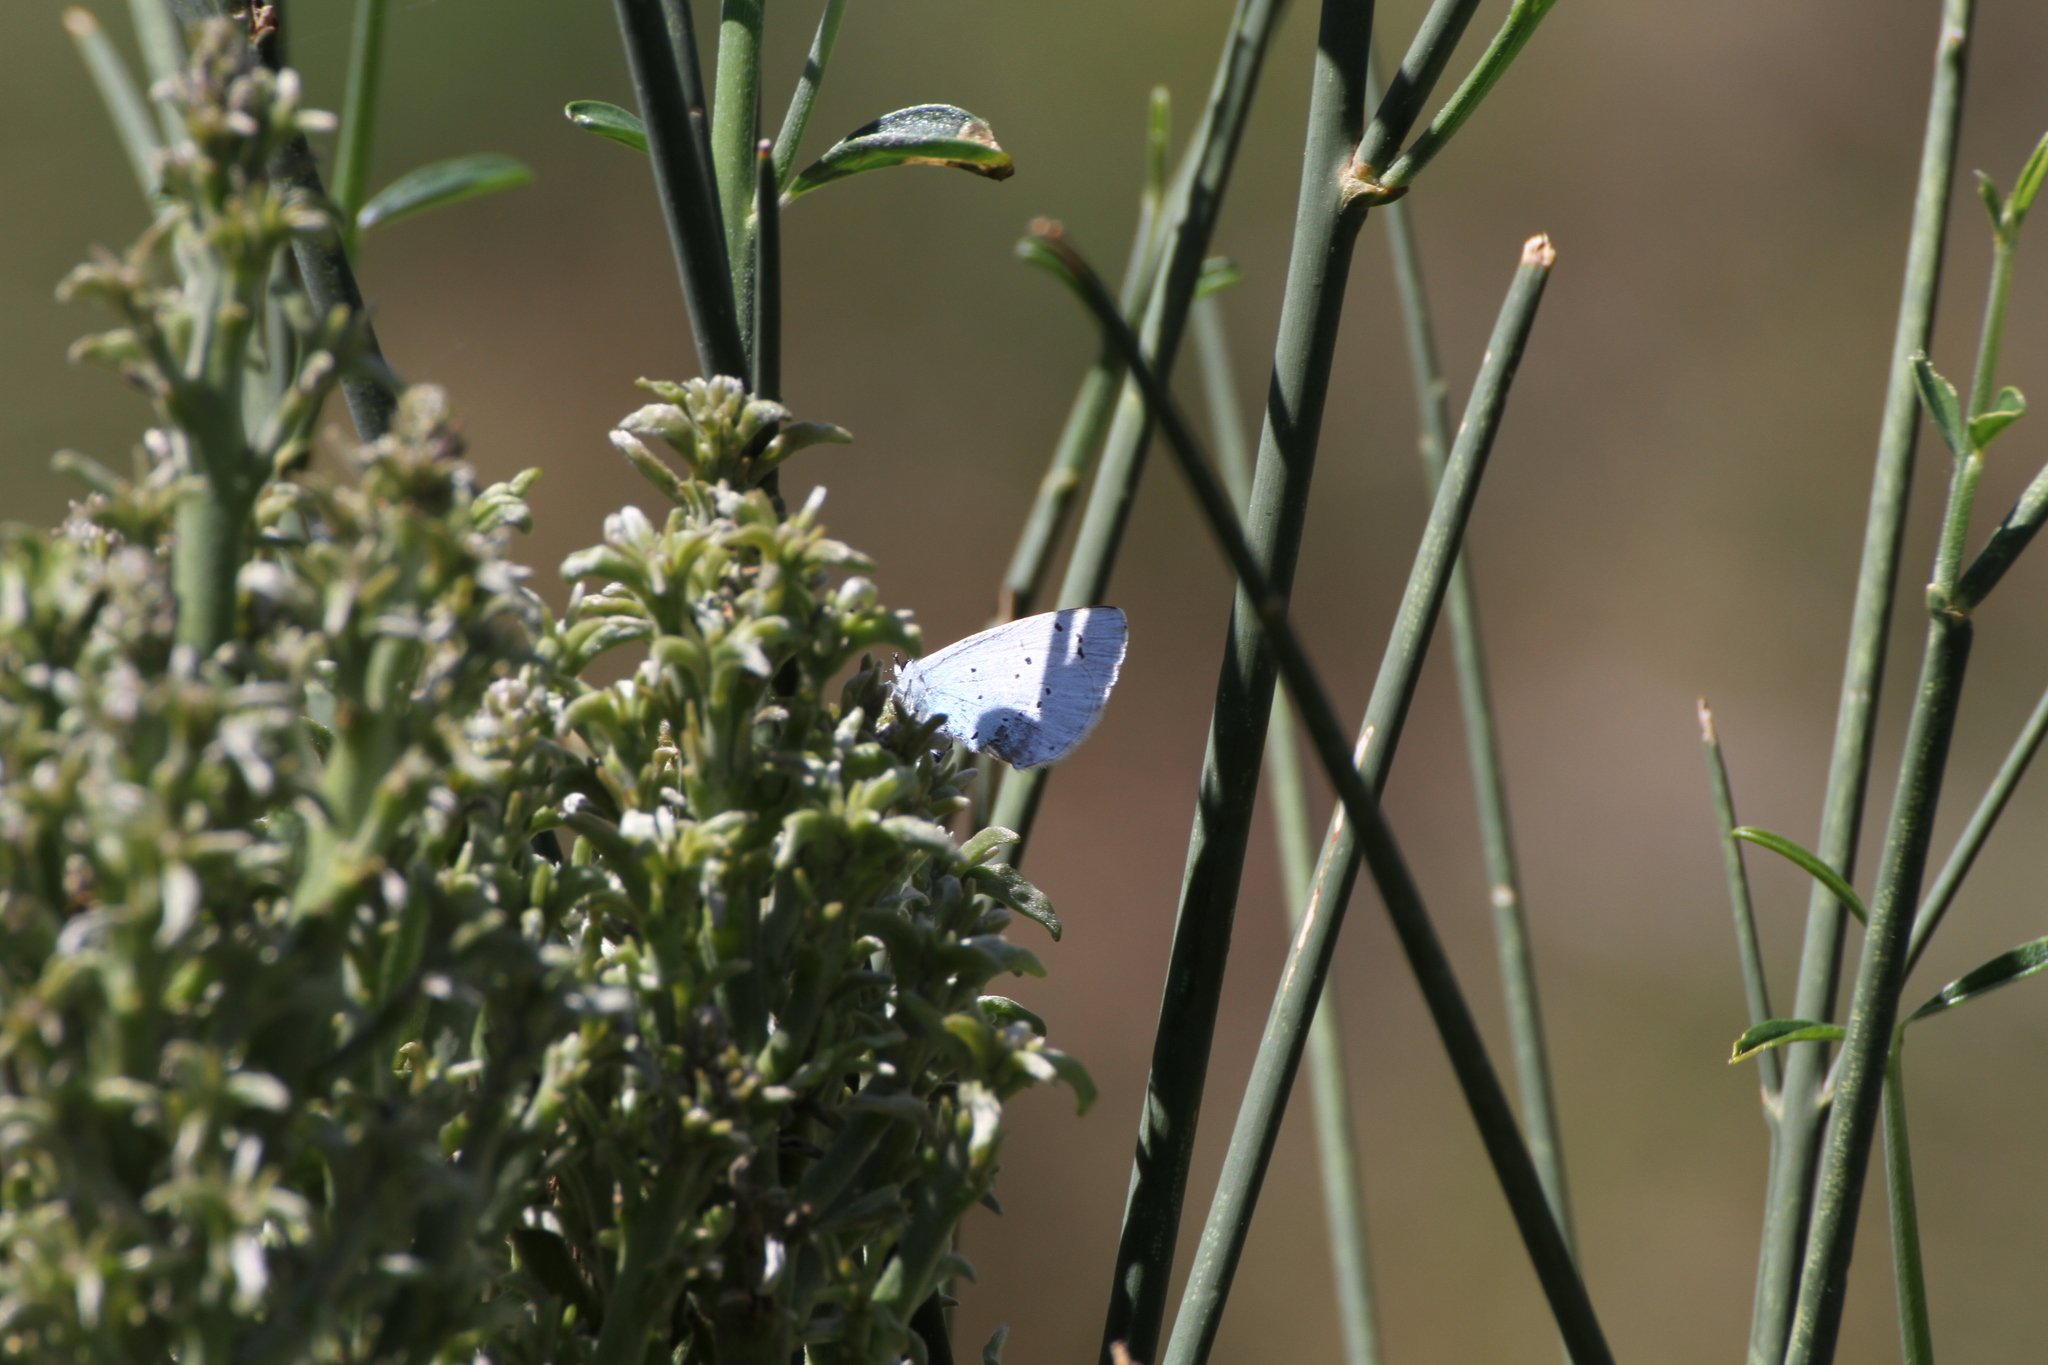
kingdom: Animalia
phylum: Arthropoda
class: Insecta
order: Lepidoptera
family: Lycaenidae
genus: Celastrina
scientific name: Celastrina argiolus
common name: Holly blue
